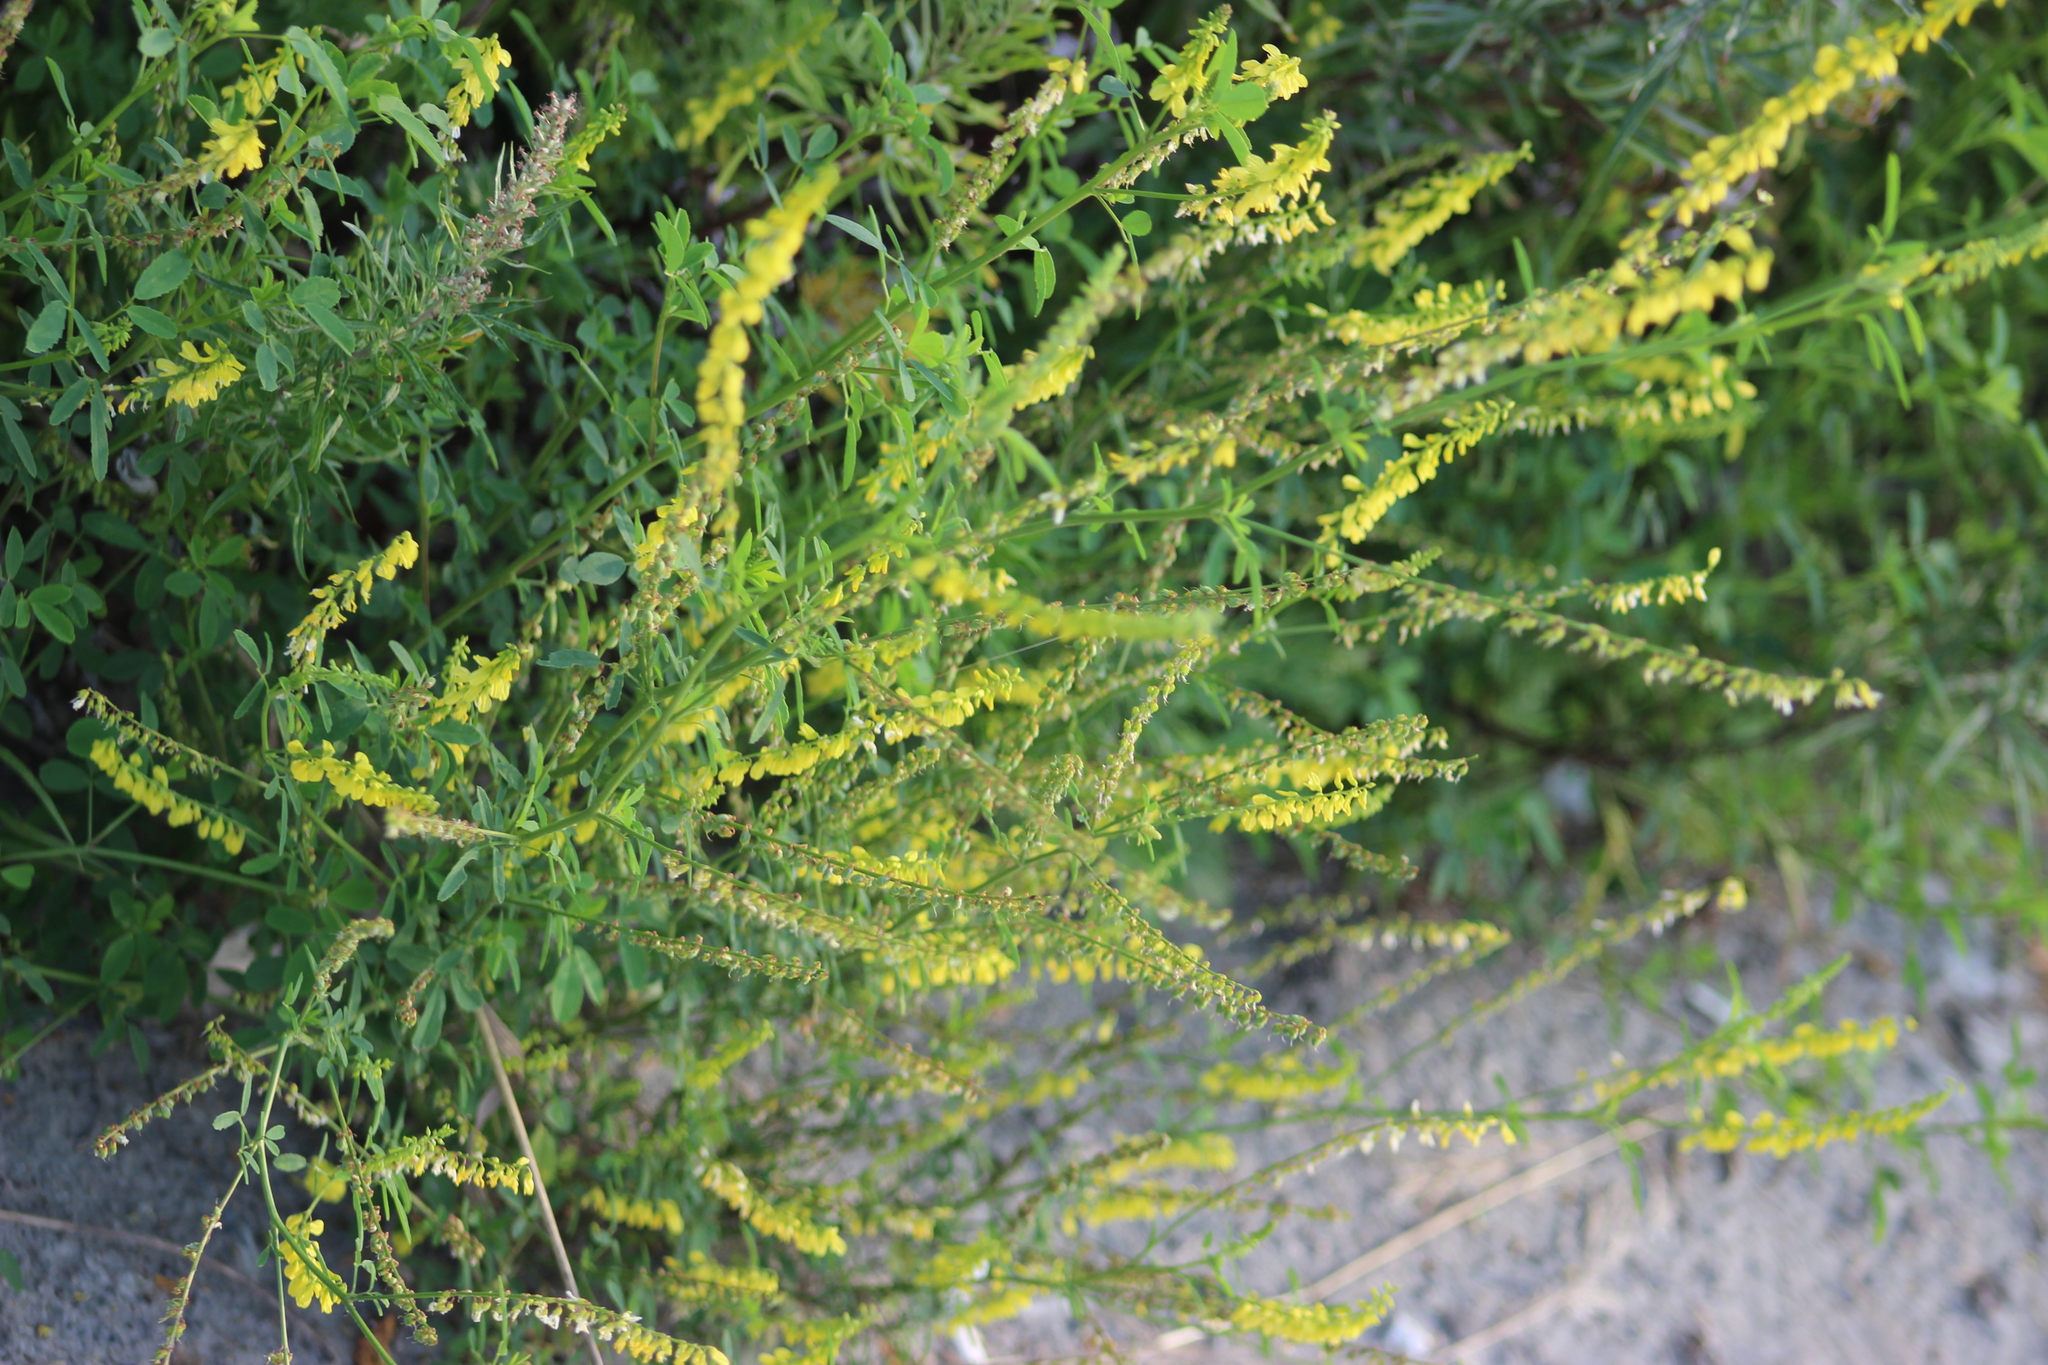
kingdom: Plantae
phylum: Tracheophyta
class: Magnoliopsida
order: Fabales
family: Fabaceae
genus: Melilotus
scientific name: Melilotus officinalis
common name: Sweetclover
